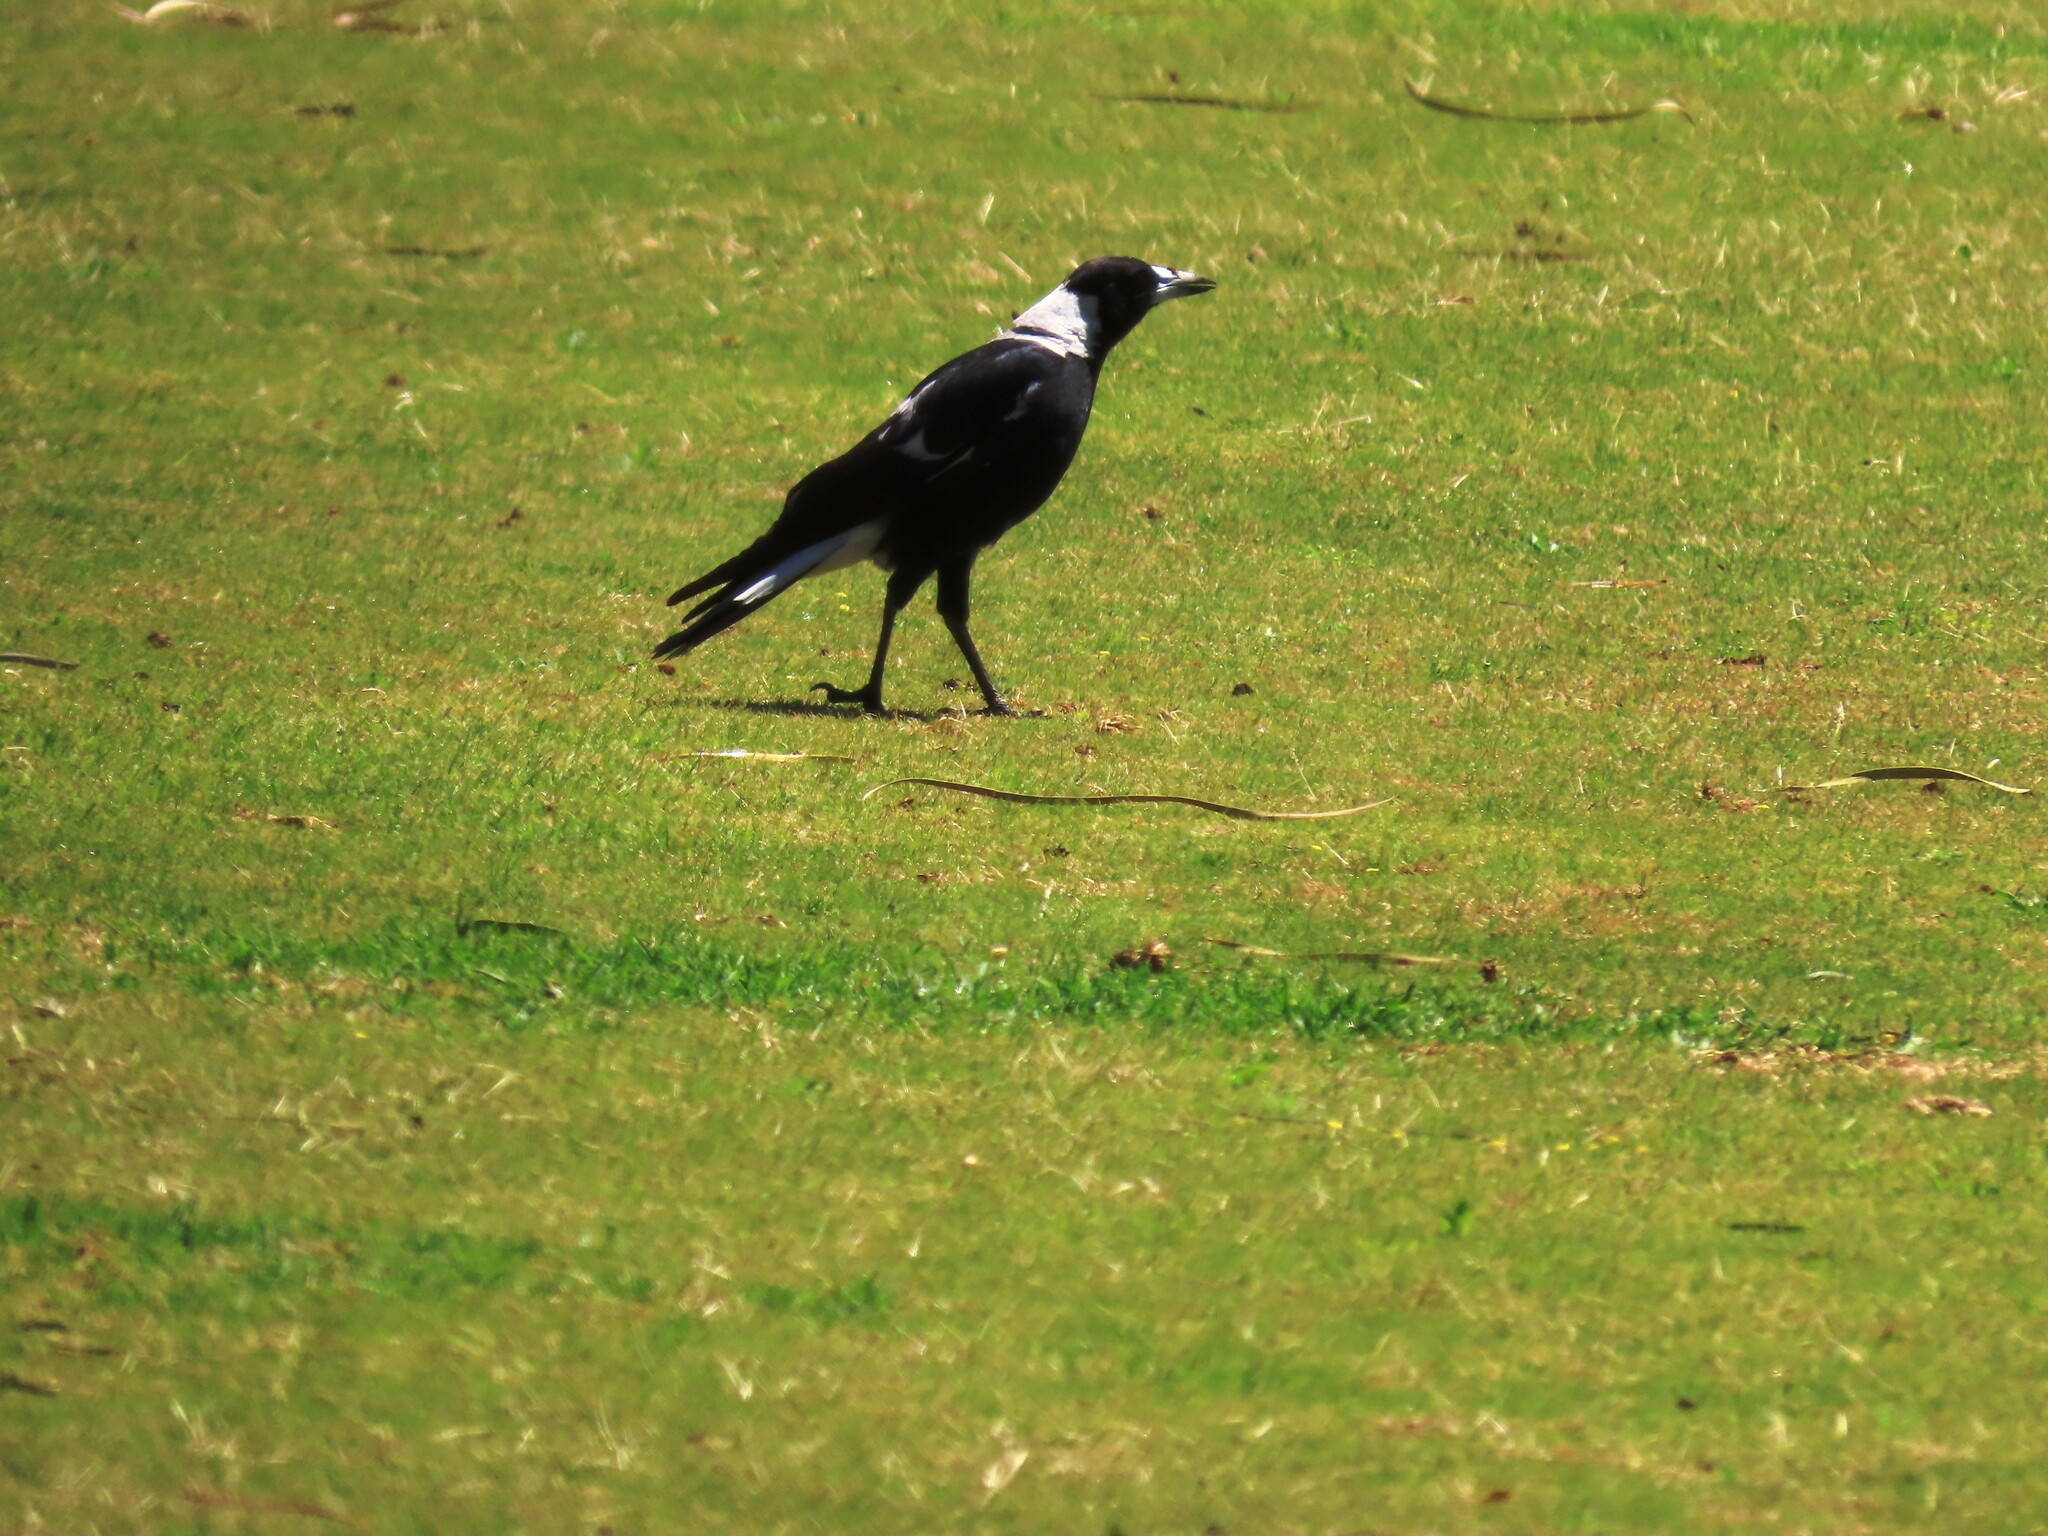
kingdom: Animalia
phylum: Chordata
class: Aves
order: Passeriformes
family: Cracticidae
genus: Gymnorhina
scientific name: Gymnorhina tibicen
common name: Australian magpie
